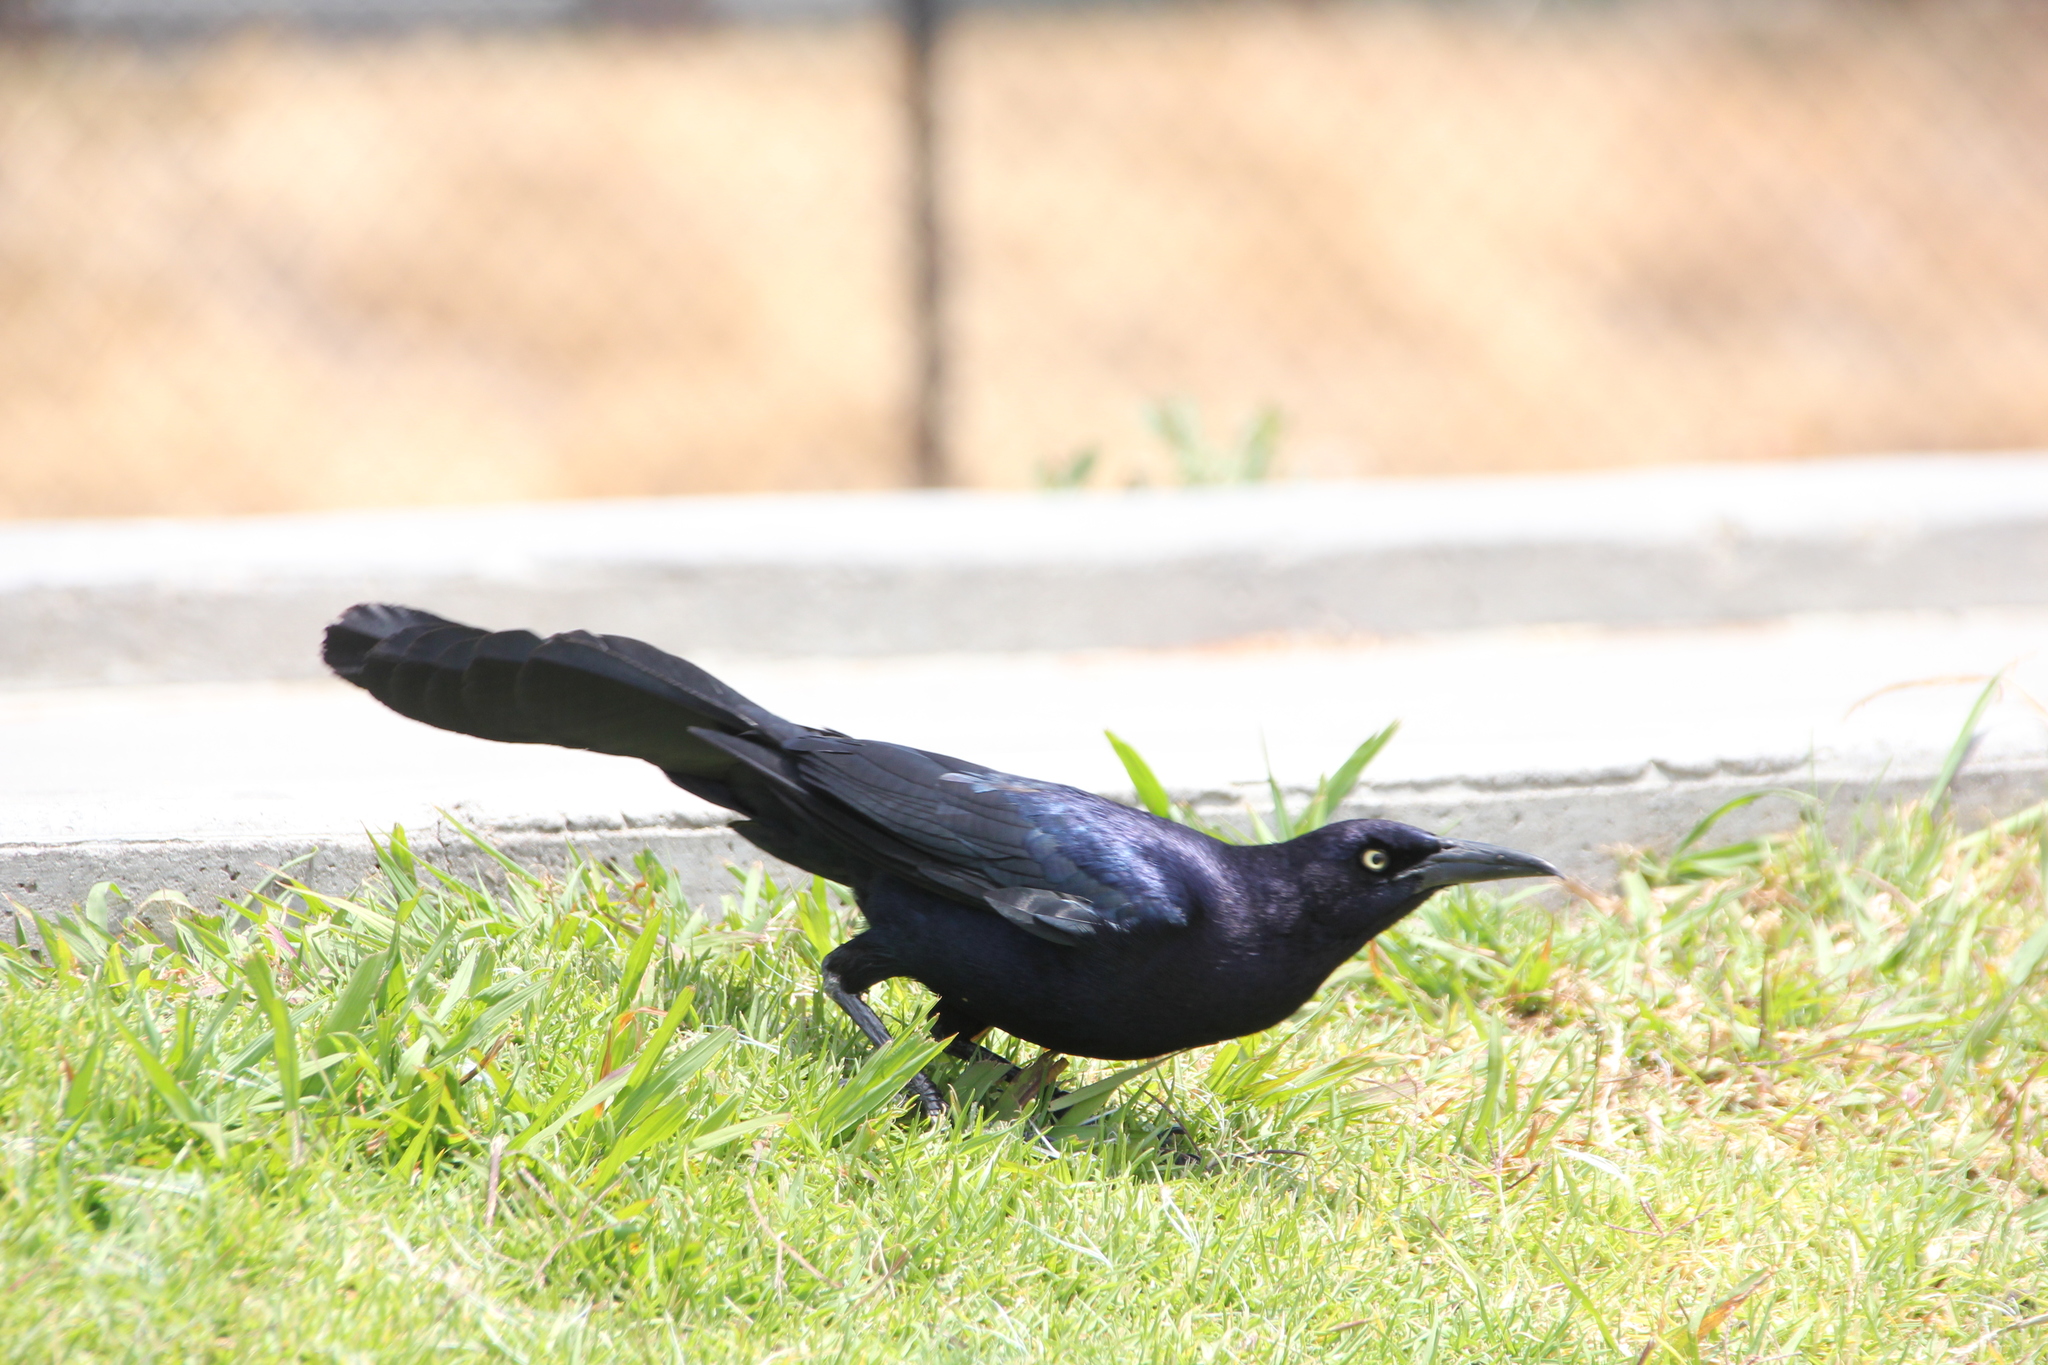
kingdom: Animalia
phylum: Chordata
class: Aves
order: Passeriformes
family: Icteridae
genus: Quiscalus
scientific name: Quiscalus mexicanus
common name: Great-tailed grackle
